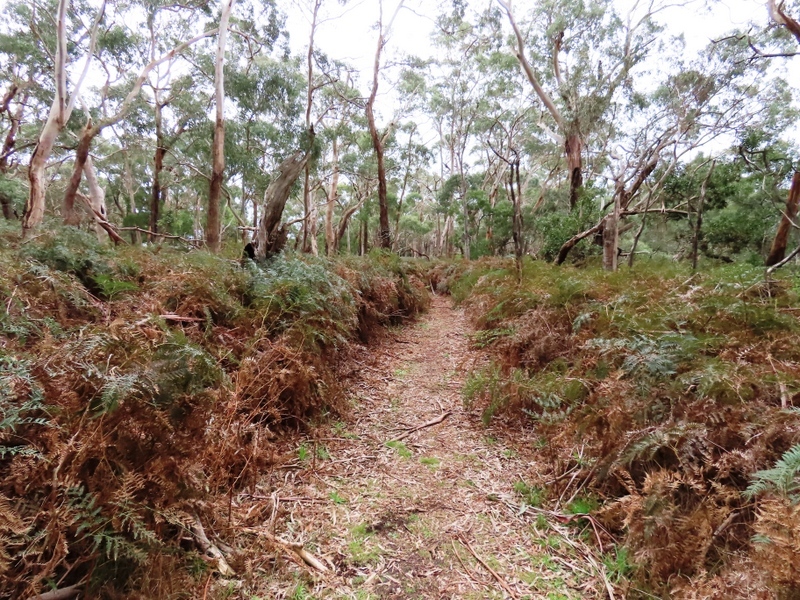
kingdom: Plantae
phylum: Tracheophyta
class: Polypodiopsida
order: Polypodiales
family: Dennstaedtiaceae
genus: Pteridium
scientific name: Pteridium esculentum
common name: Bracken fern
